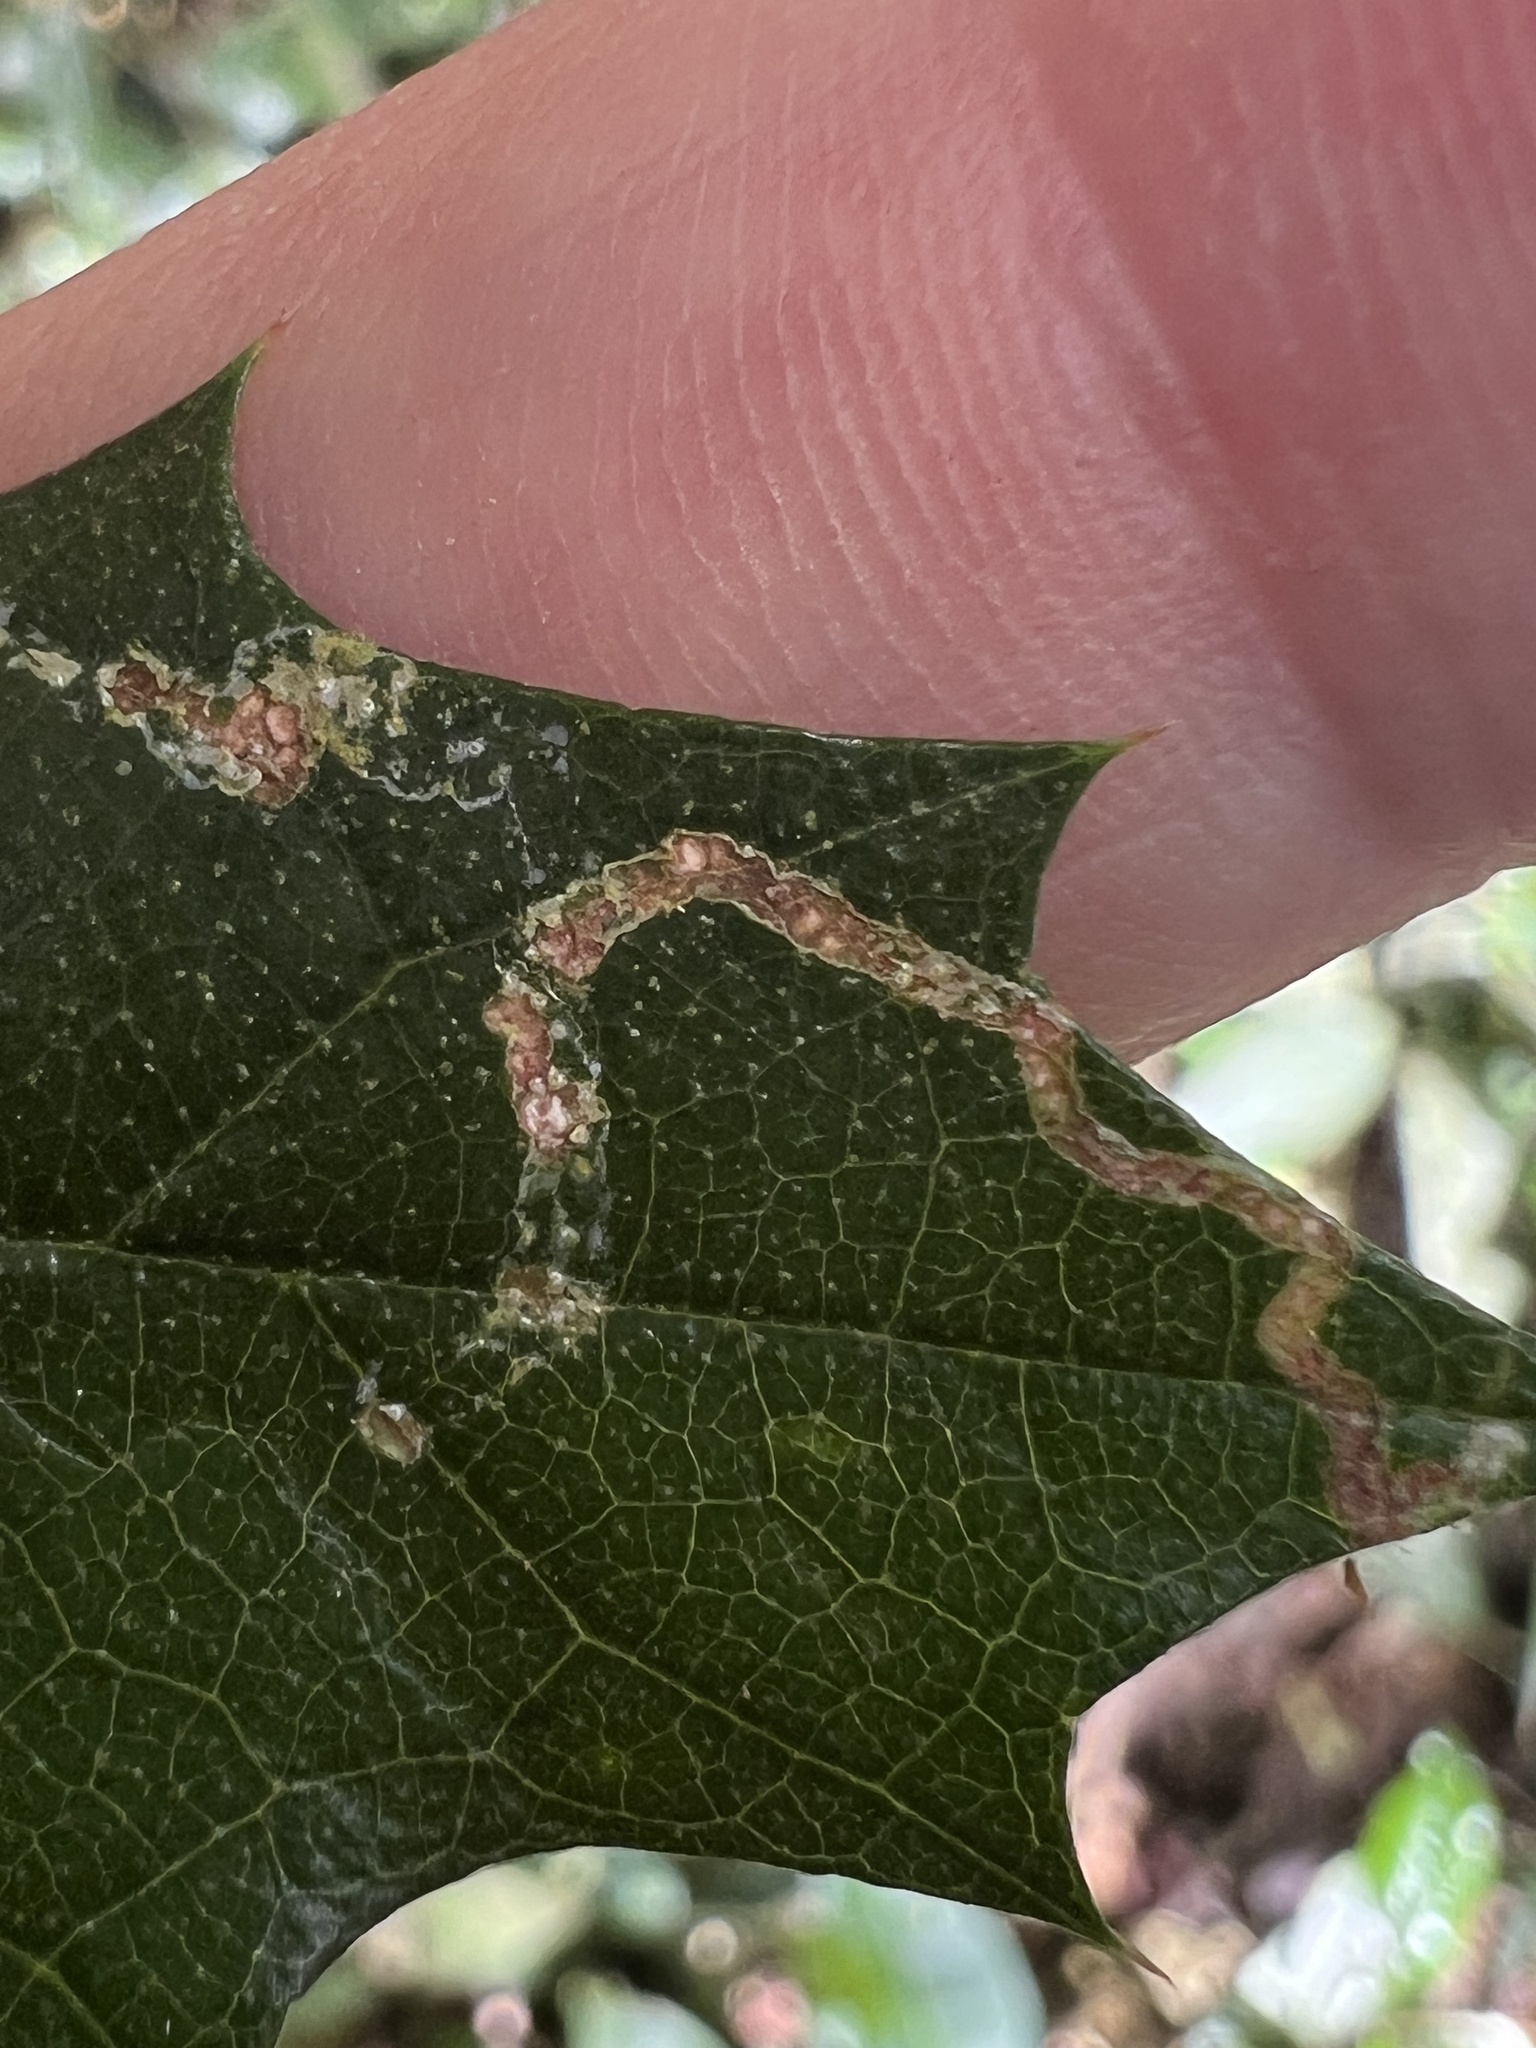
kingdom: Plantae
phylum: Tracheophyta
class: Magnoliopsida
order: Rosales
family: Cannabaceae
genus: Aphananthe
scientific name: Aphananthe philippinensis
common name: Wild holly
